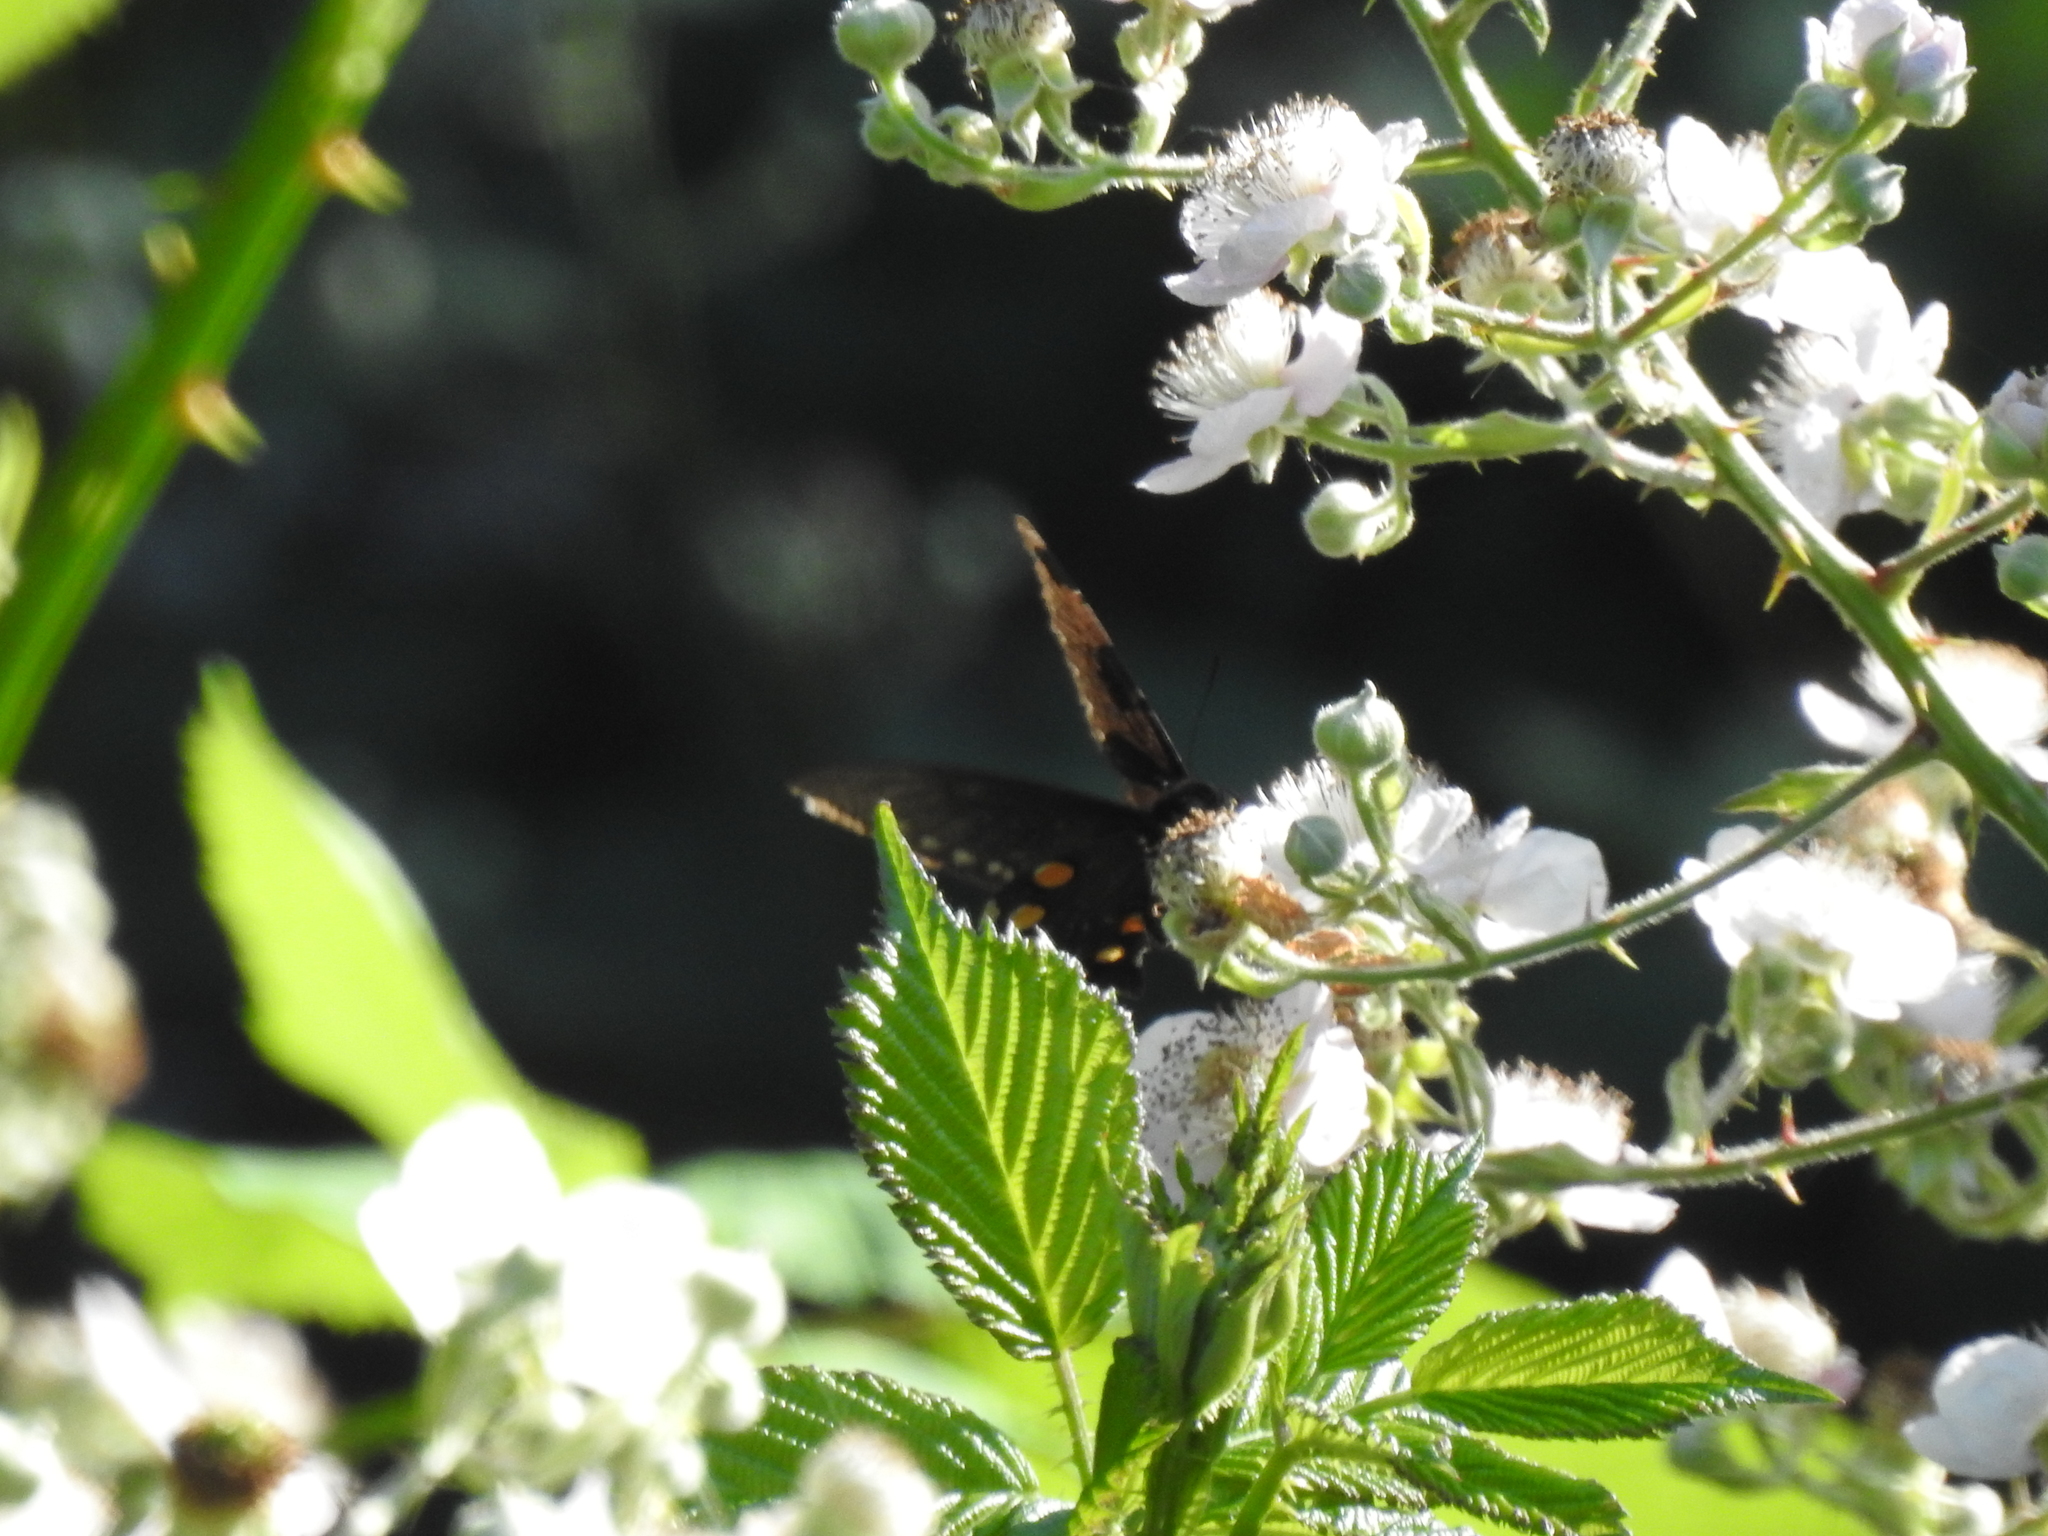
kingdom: Animalia
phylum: Arthropoda
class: Insecta
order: Lepidoptera
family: Papilionidae
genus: Battus
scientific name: Battus philenor
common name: Pipevine swallowtail
